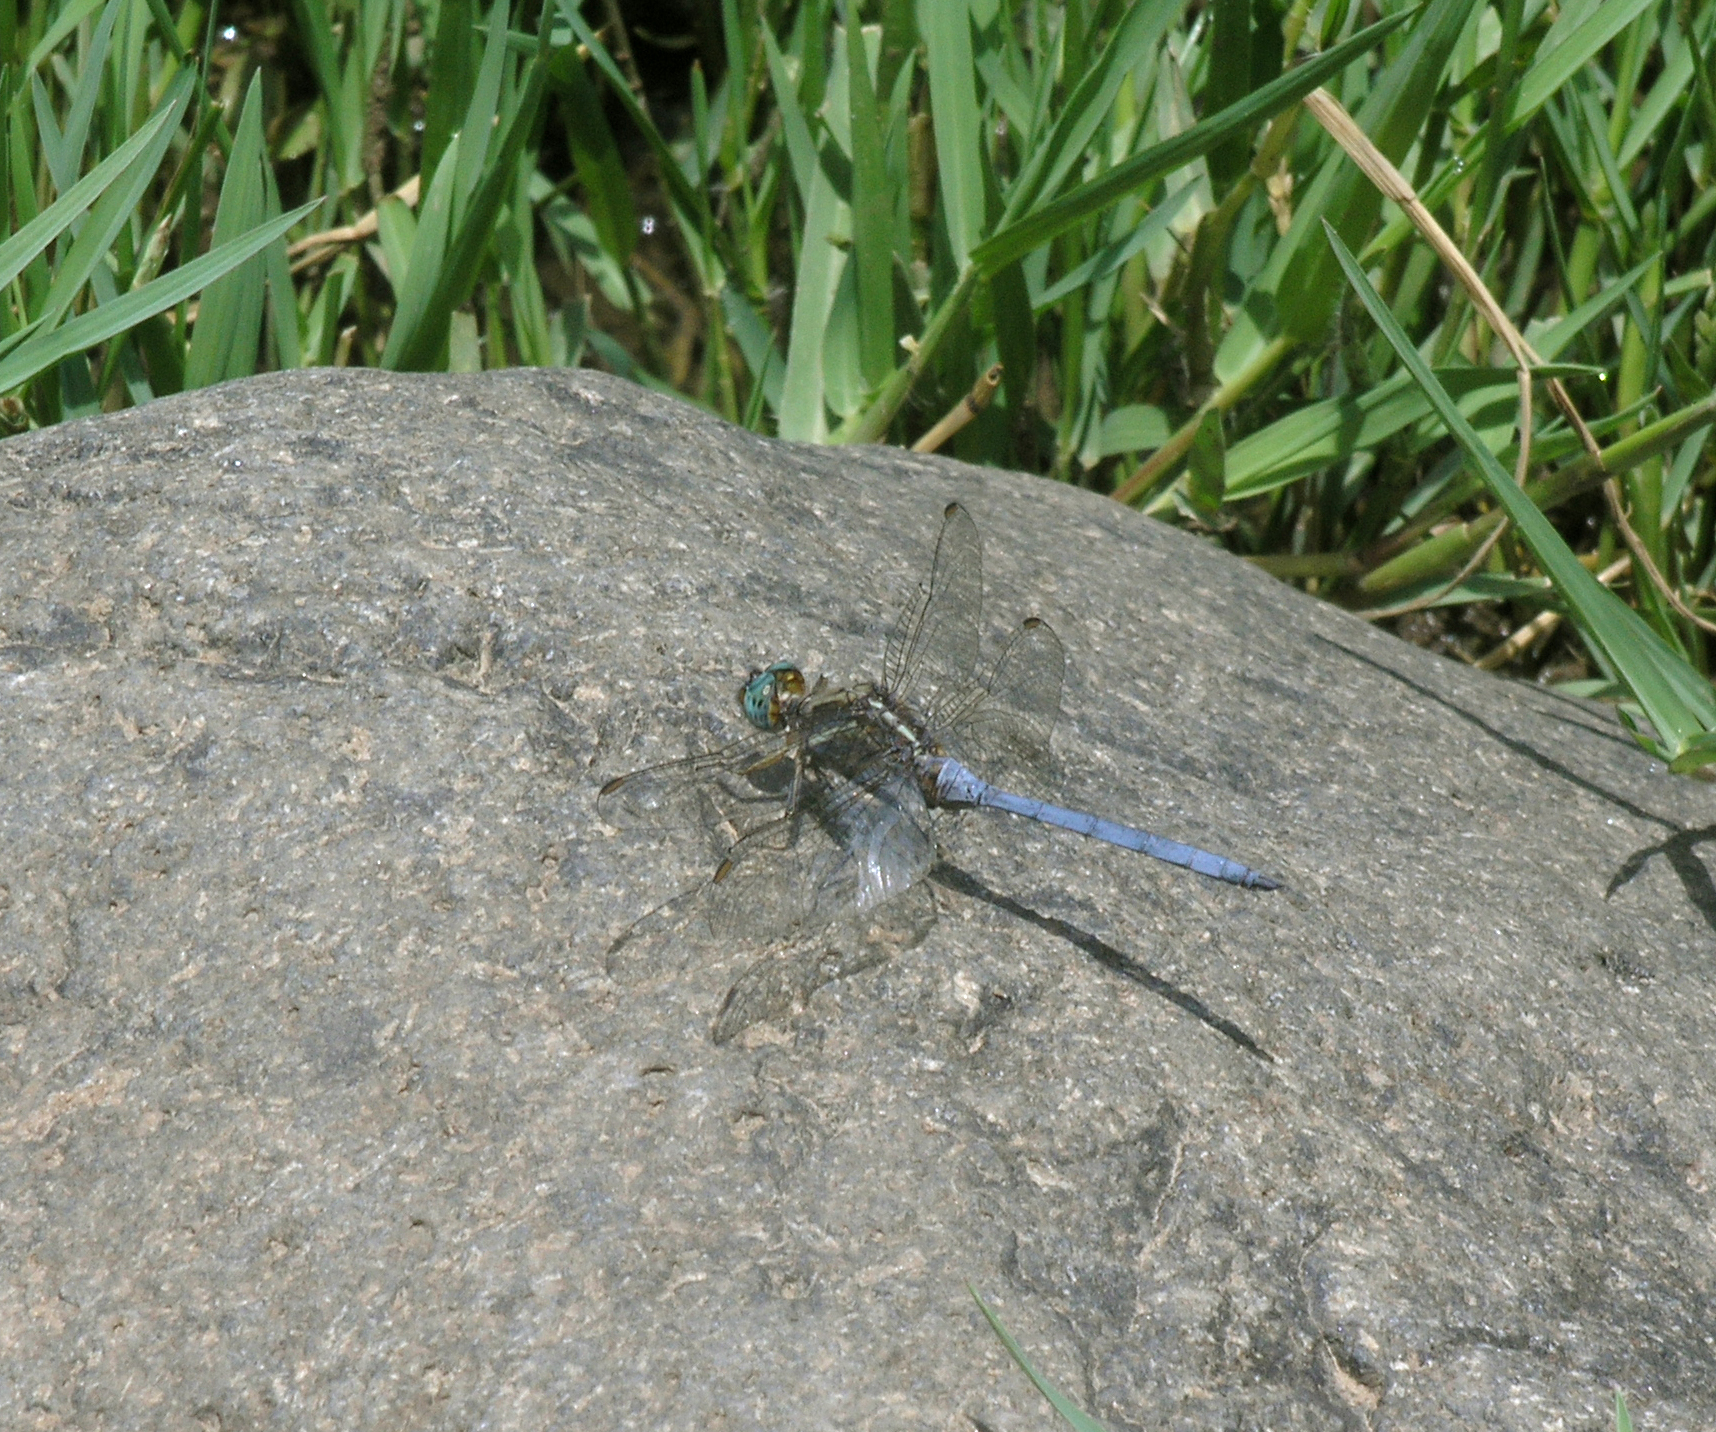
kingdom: Animalia
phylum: Arthropoda
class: Insecta
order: Odonata
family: Libellulidae
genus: Orthetrum
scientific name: Orthetrum chrysostigma
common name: Epaulet skimmer
